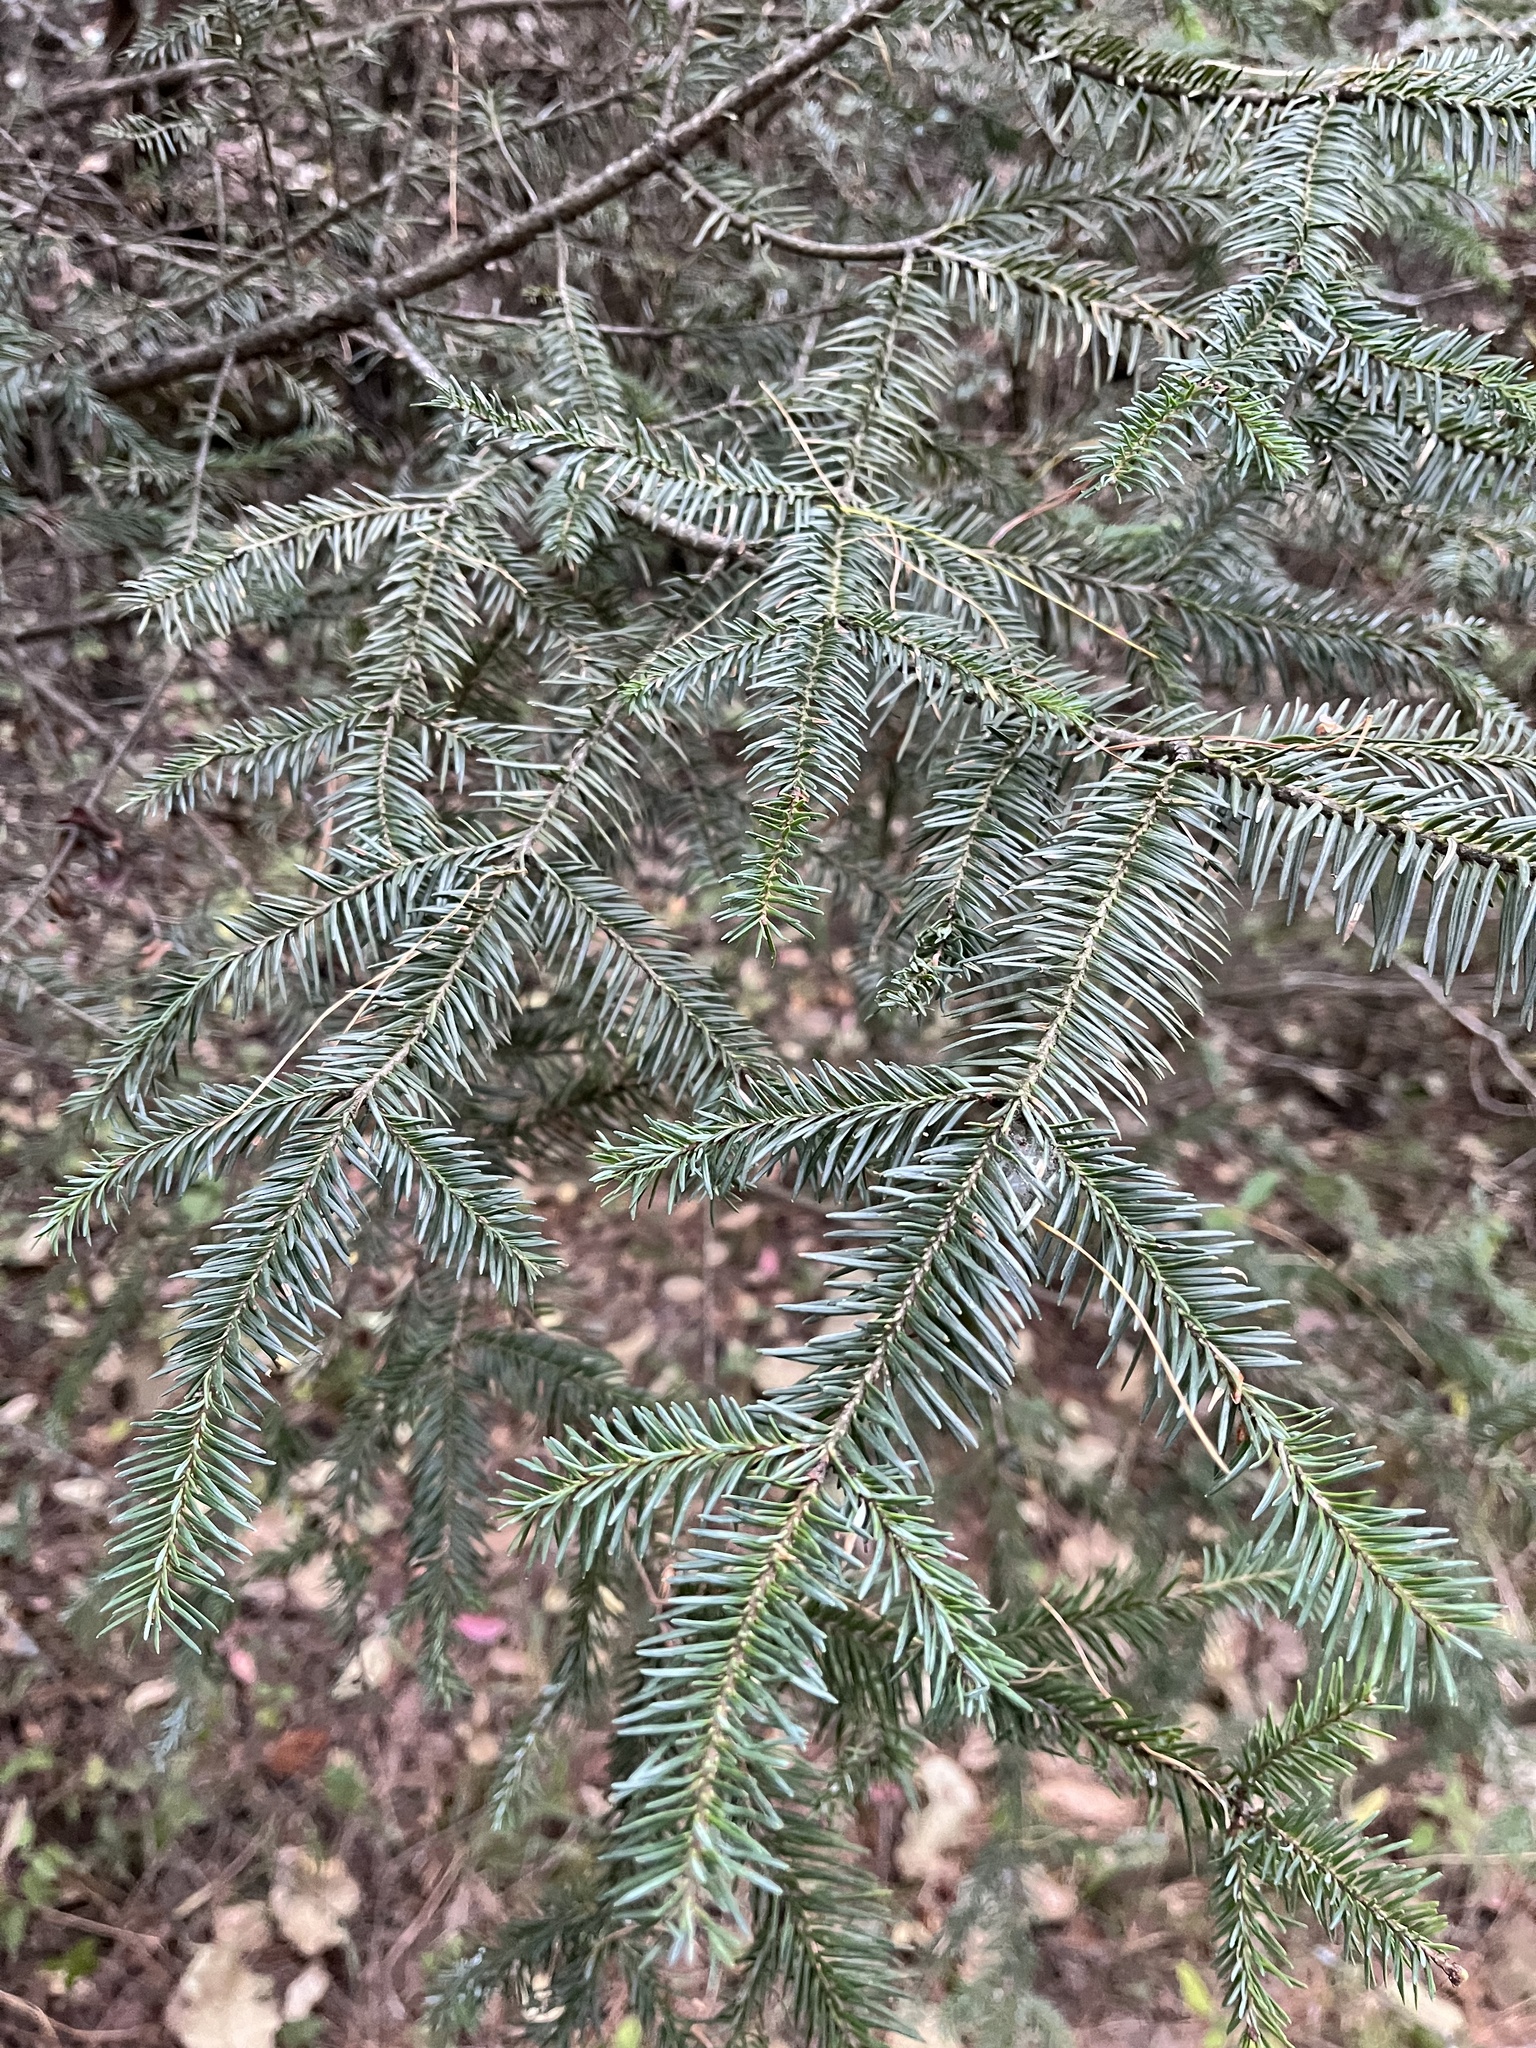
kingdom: Plantae
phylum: Tracheophyta
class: Pinopsida
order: Pinales
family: Pinaceae
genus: Abies
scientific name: Abies religiosa
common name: Sacred fir
